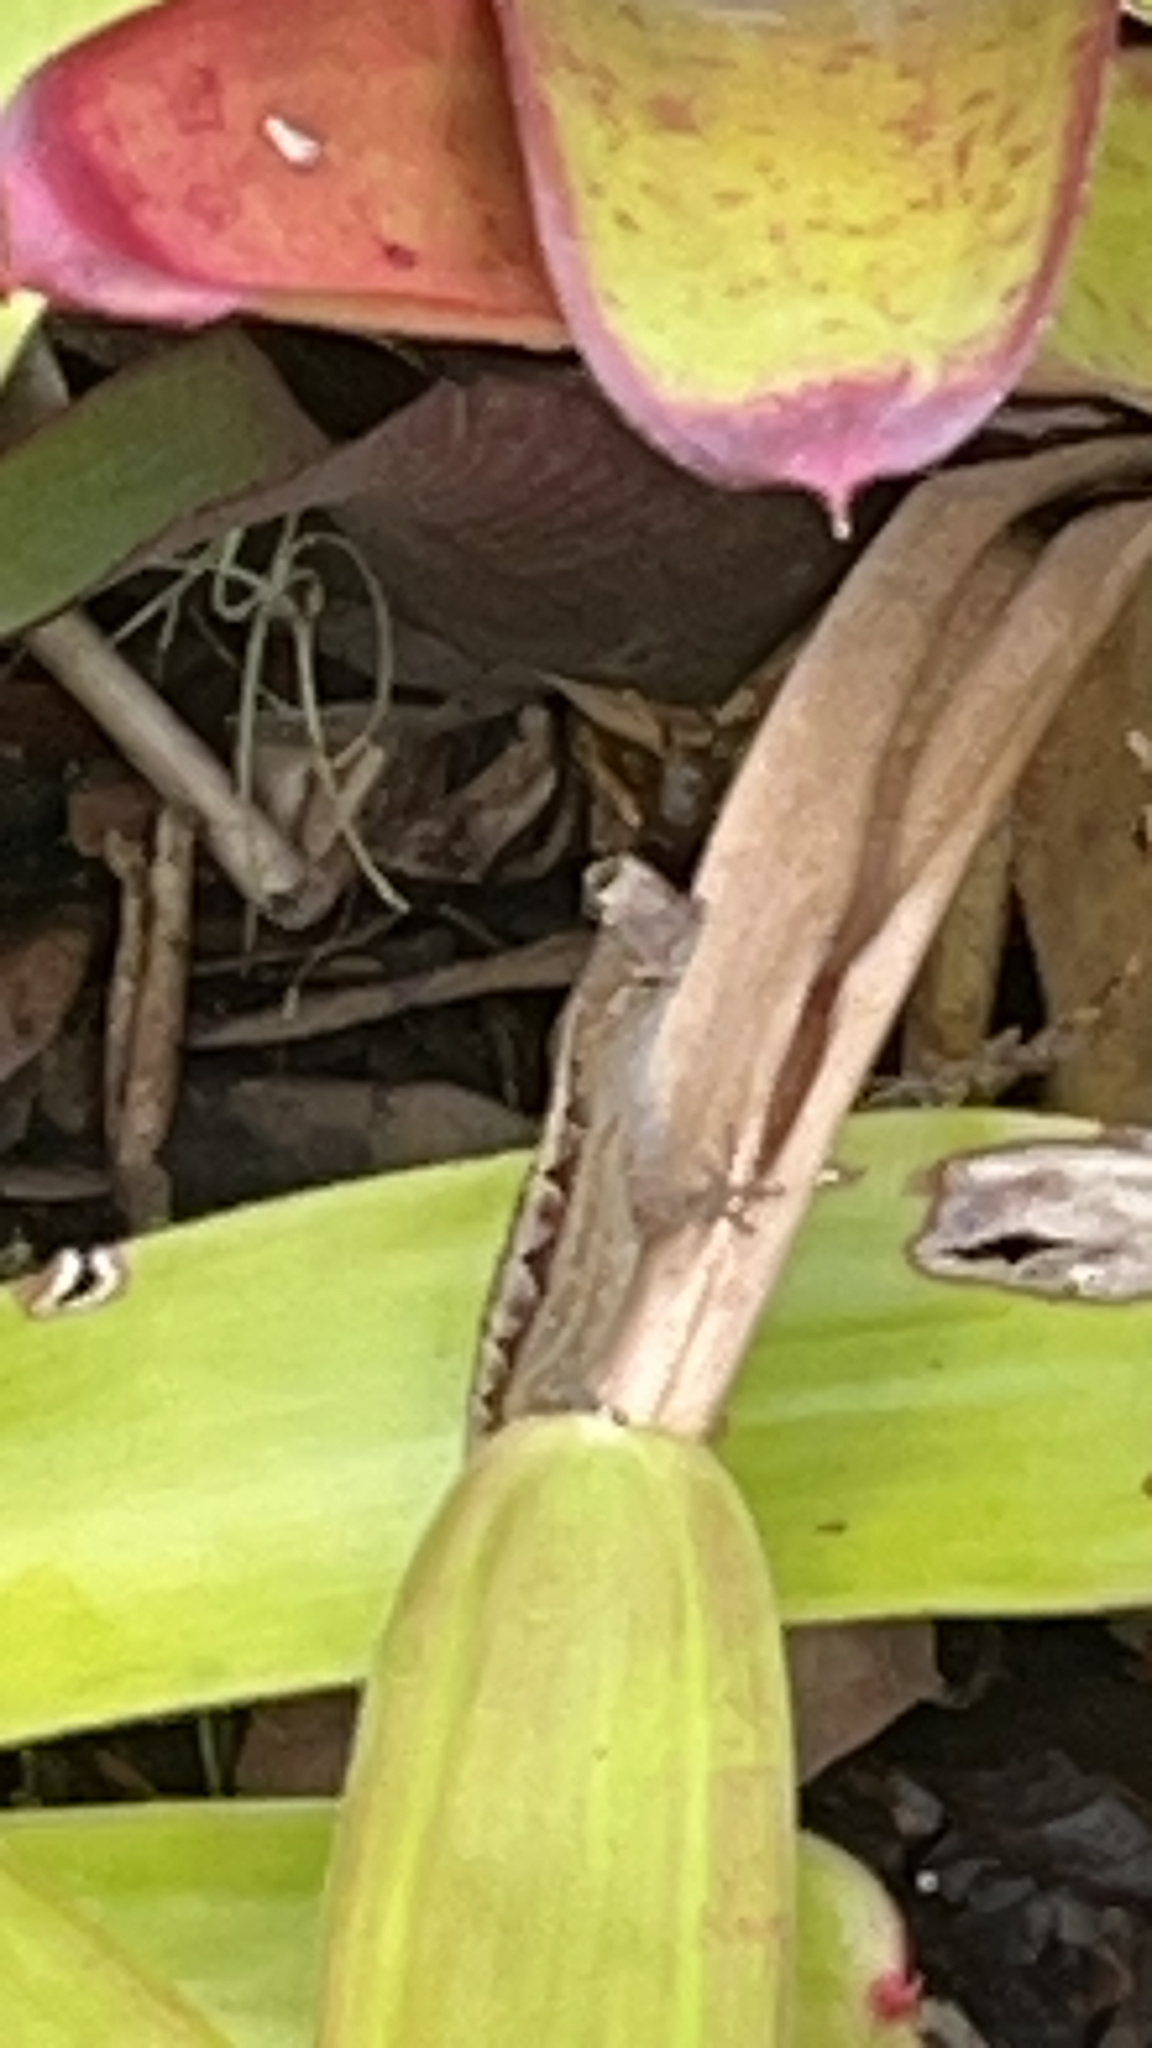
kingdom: Animalia
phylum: Chordata
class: Squamata
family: Dactyloidae
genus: Anolis
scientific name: Anolis sagrei
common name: Brown anole
